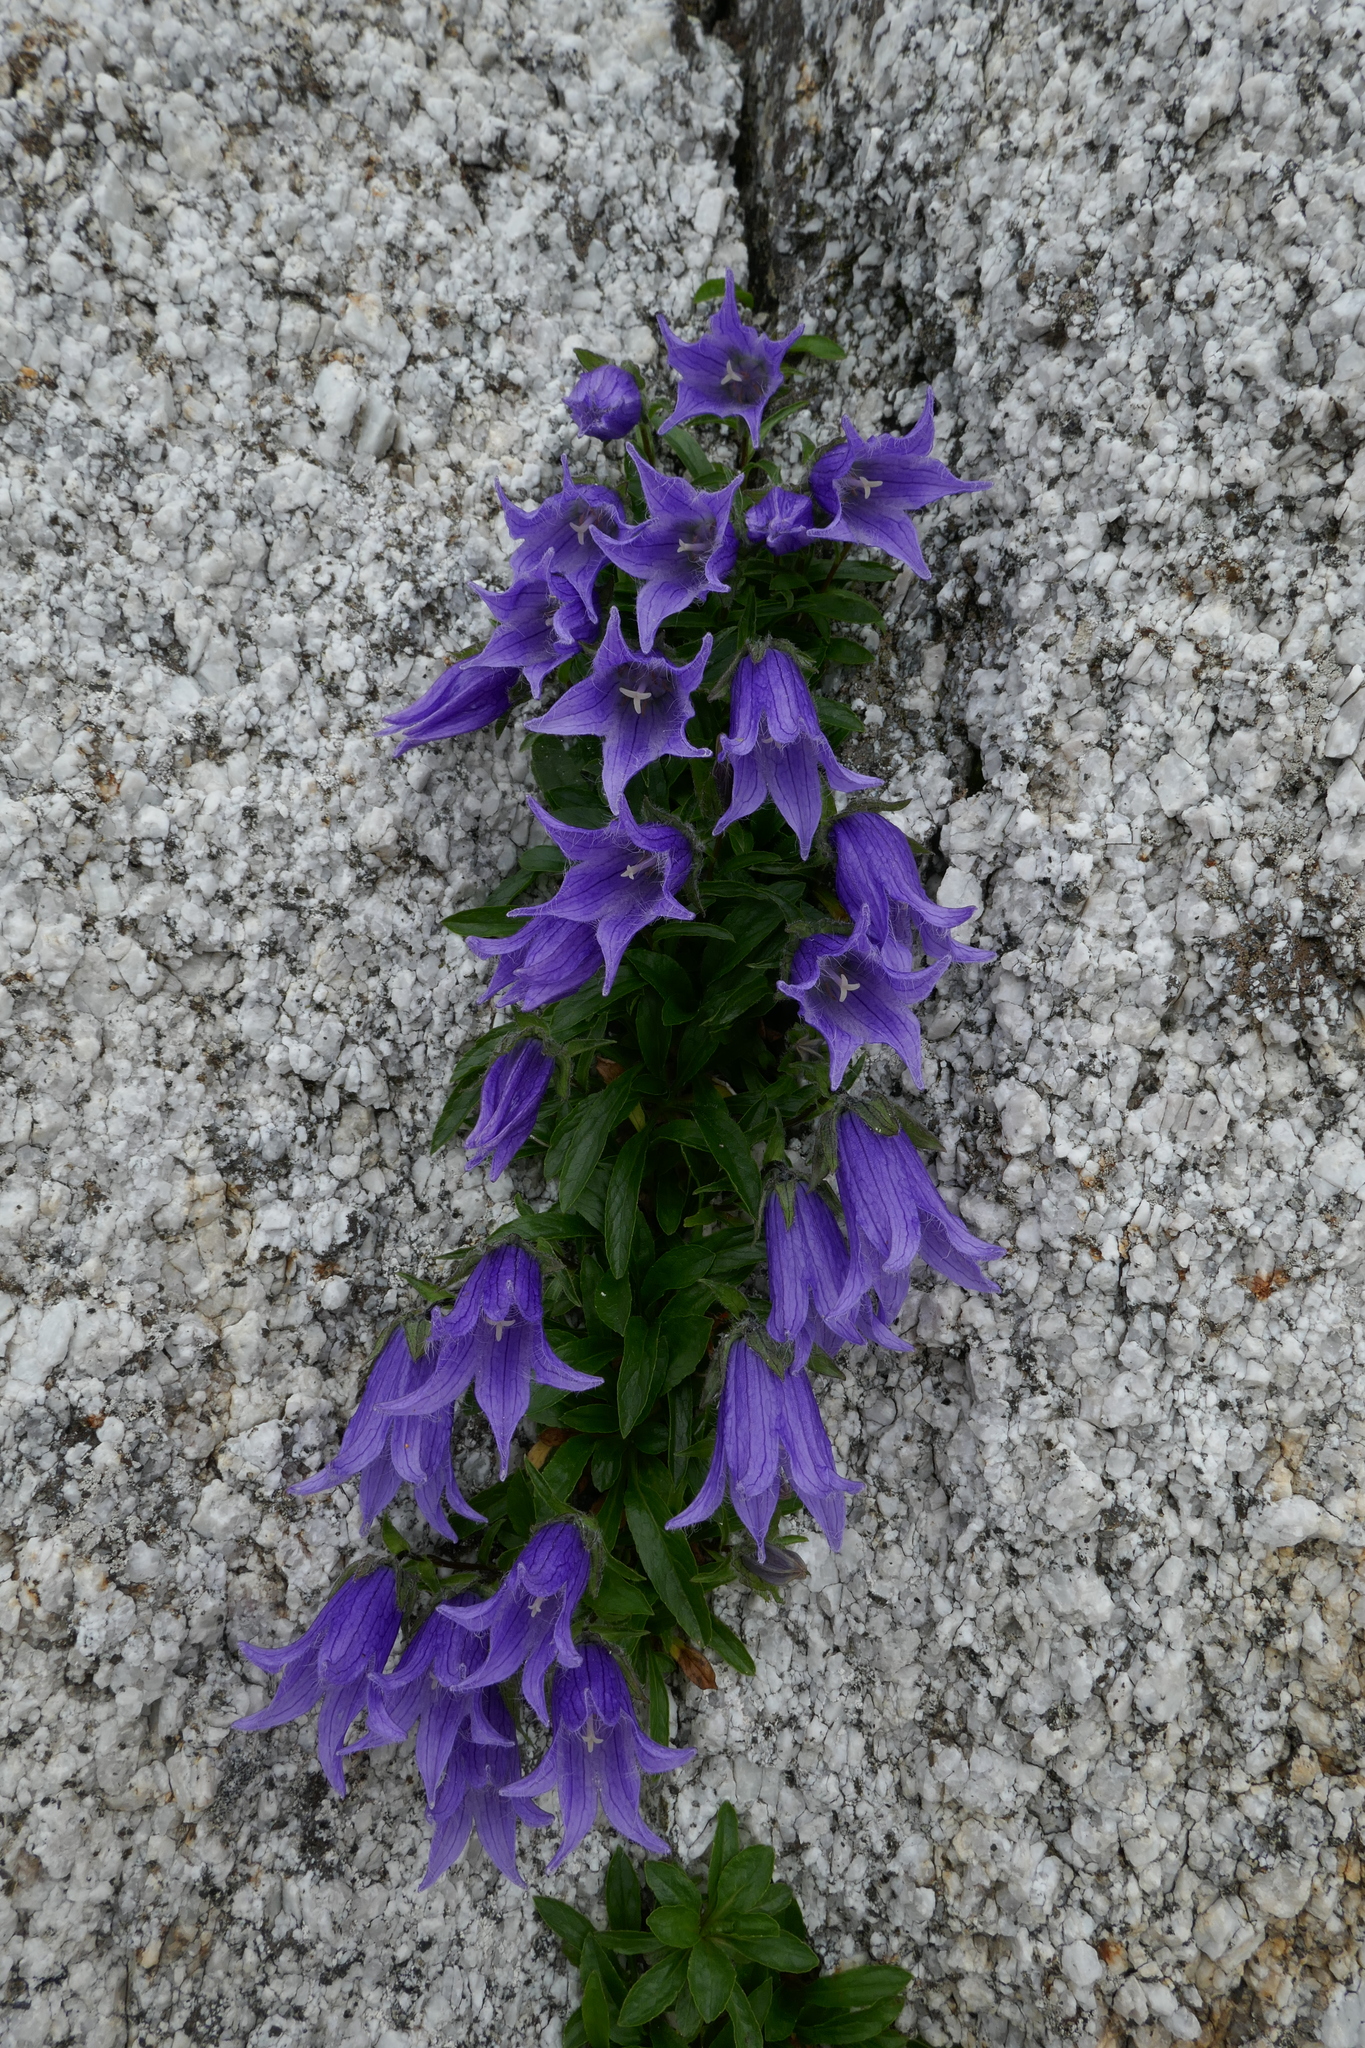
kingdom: Plantae
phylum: Tracheophyta
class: Magnoliopsida
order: Asterales
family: Campanulaceae
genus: Campanula
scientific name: Campanula dasyantha
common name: Hairyflower bellflower
